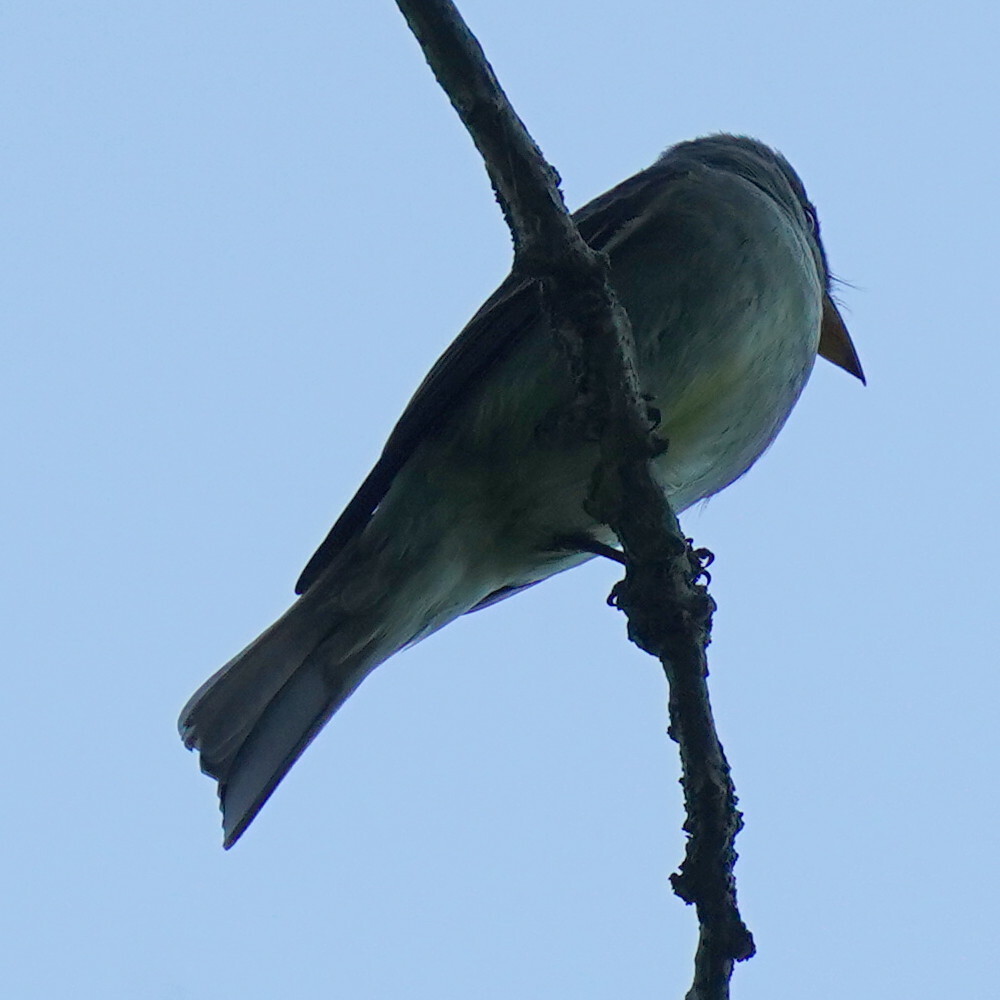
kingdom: Animalia
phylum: Chordata
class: Aves
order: Passeriformes
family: Tyrannidae
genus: Contopus
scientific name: Contopus virens
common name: Eastern wood-pewee
